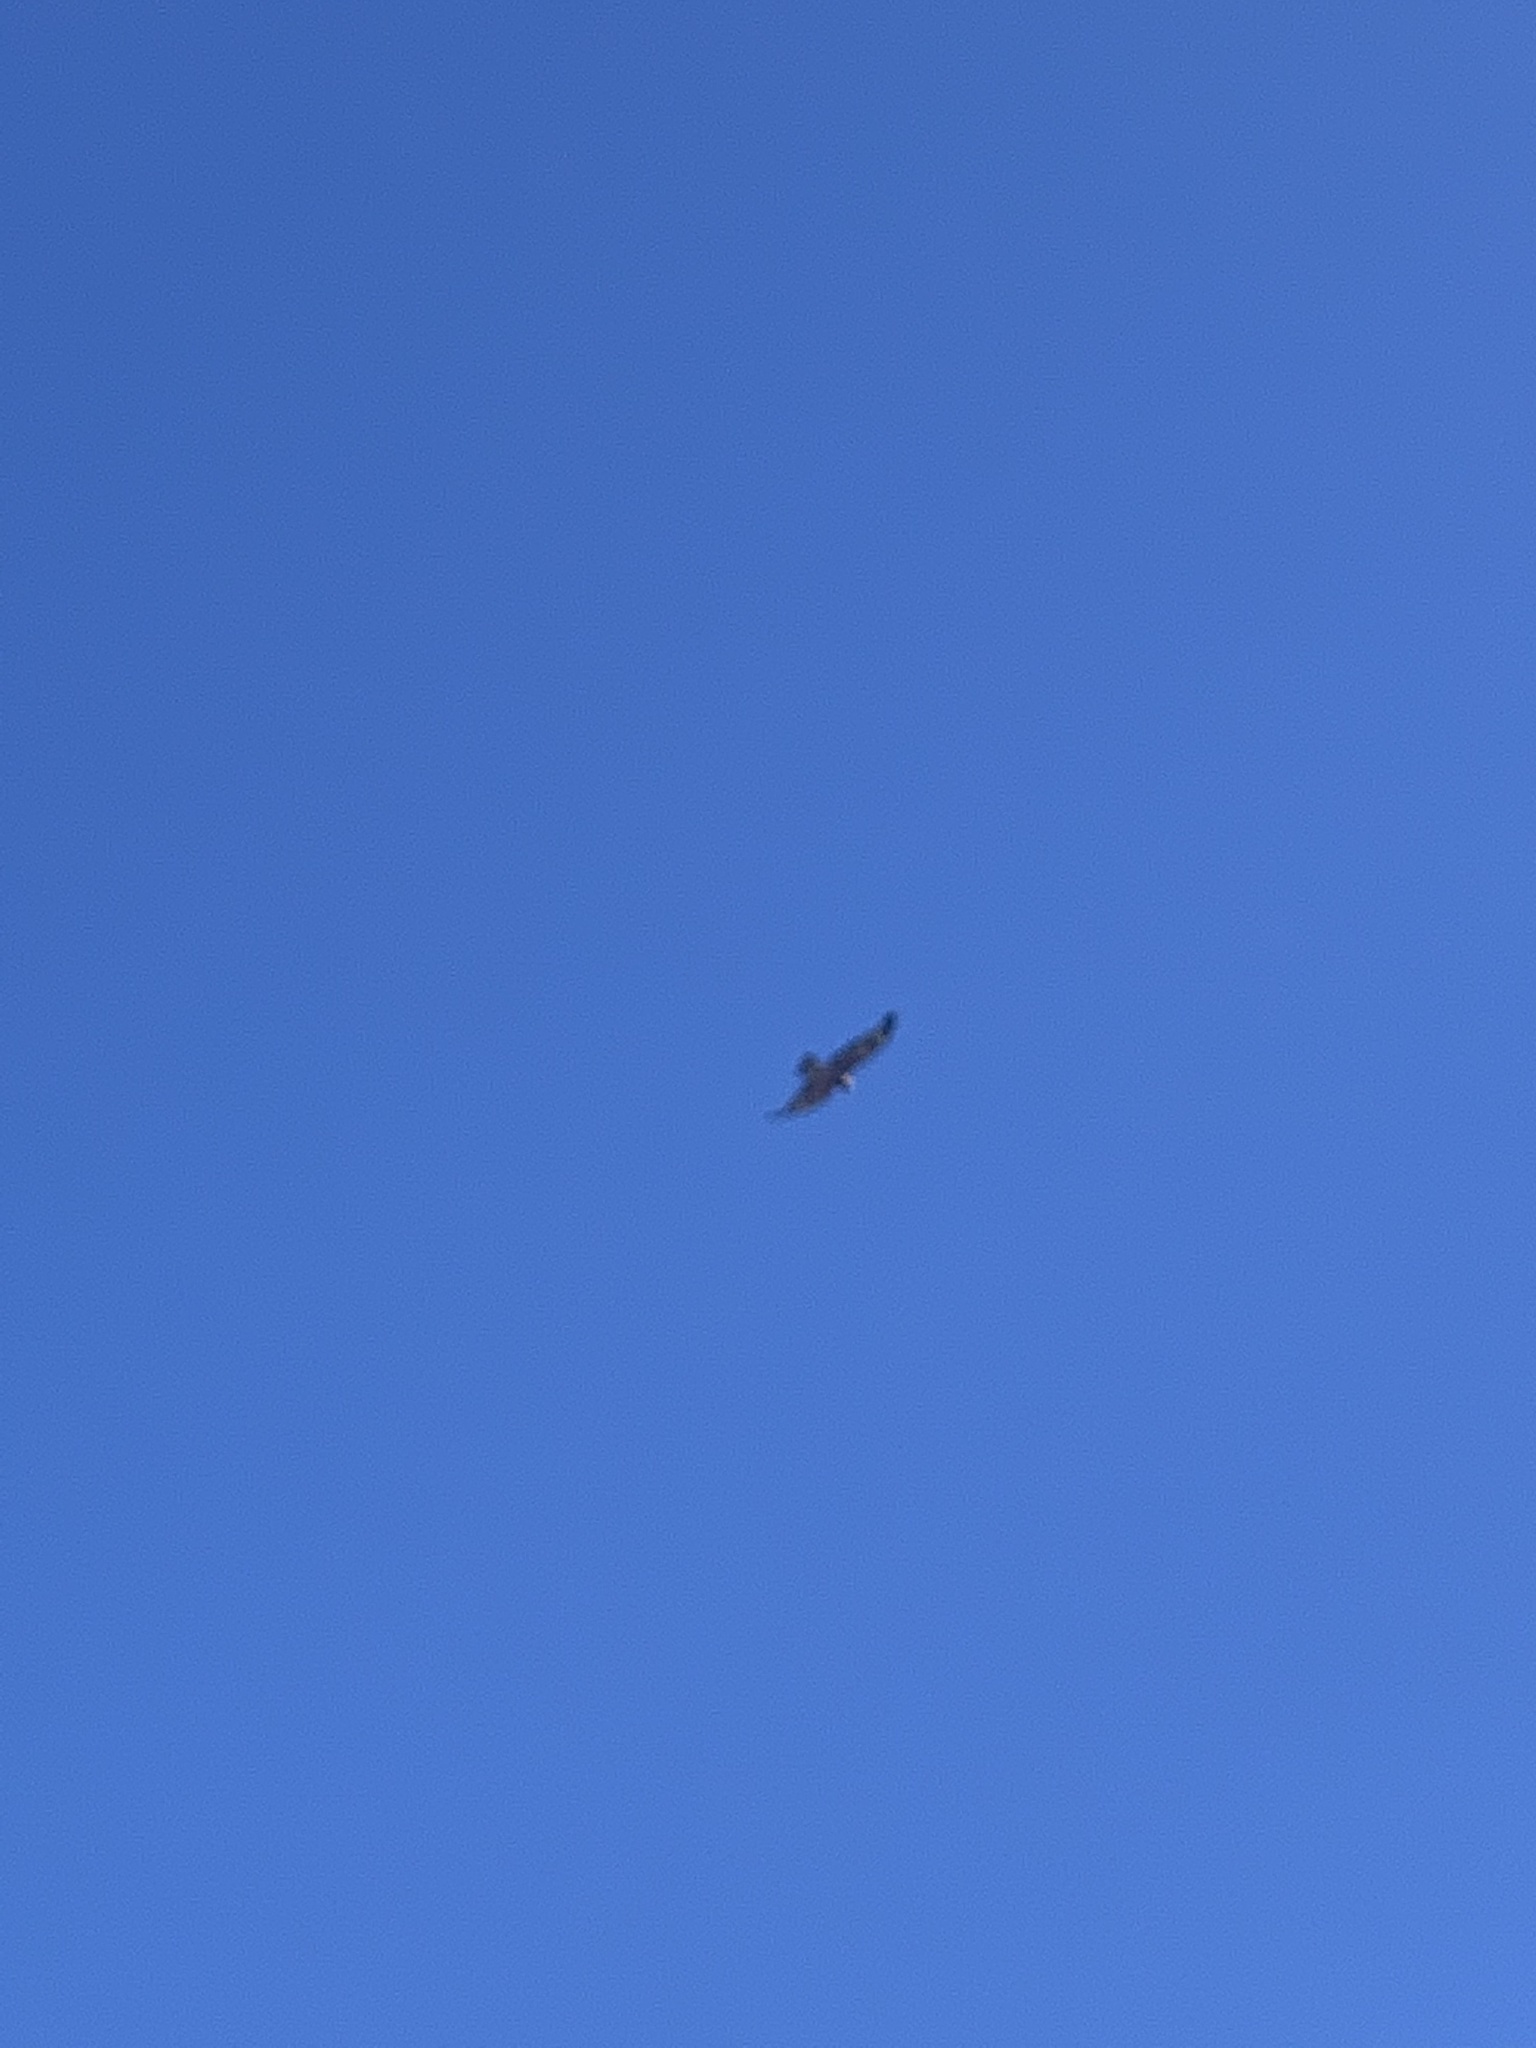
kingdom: Animalia
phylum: Chordata
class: Aves
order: Accipitriformes
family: Accipitridae
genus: Lophoictinia
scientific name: Lophoictinia isura
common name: Square-tailed kite
